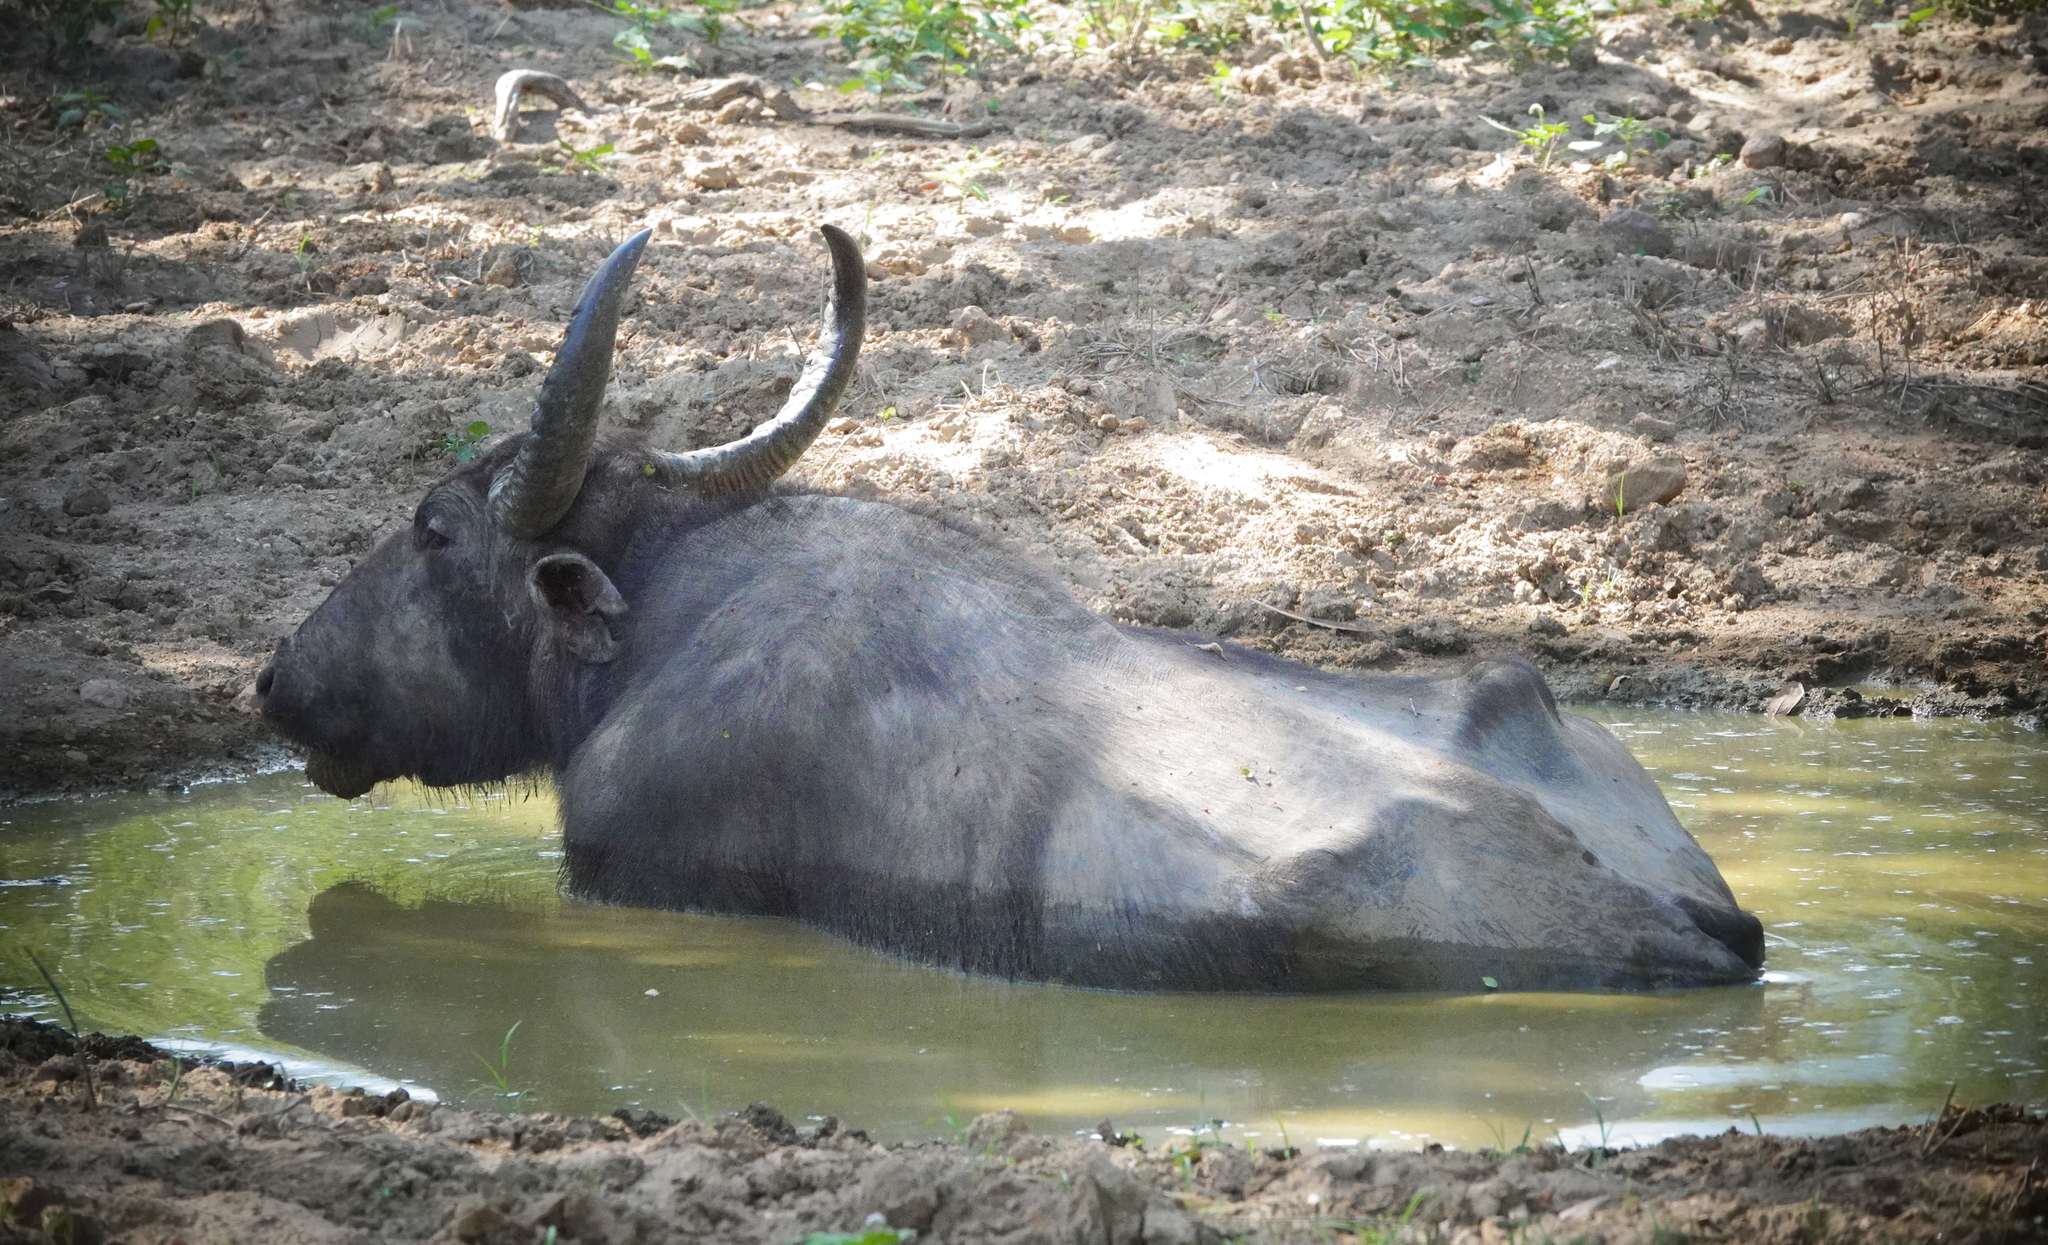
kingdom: Animalia
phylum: Chordata
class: Mammalia
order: Artiodactyla
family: Bovidae
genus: Bubalus
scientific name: Bubalus bubalis
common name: Water buffalo
